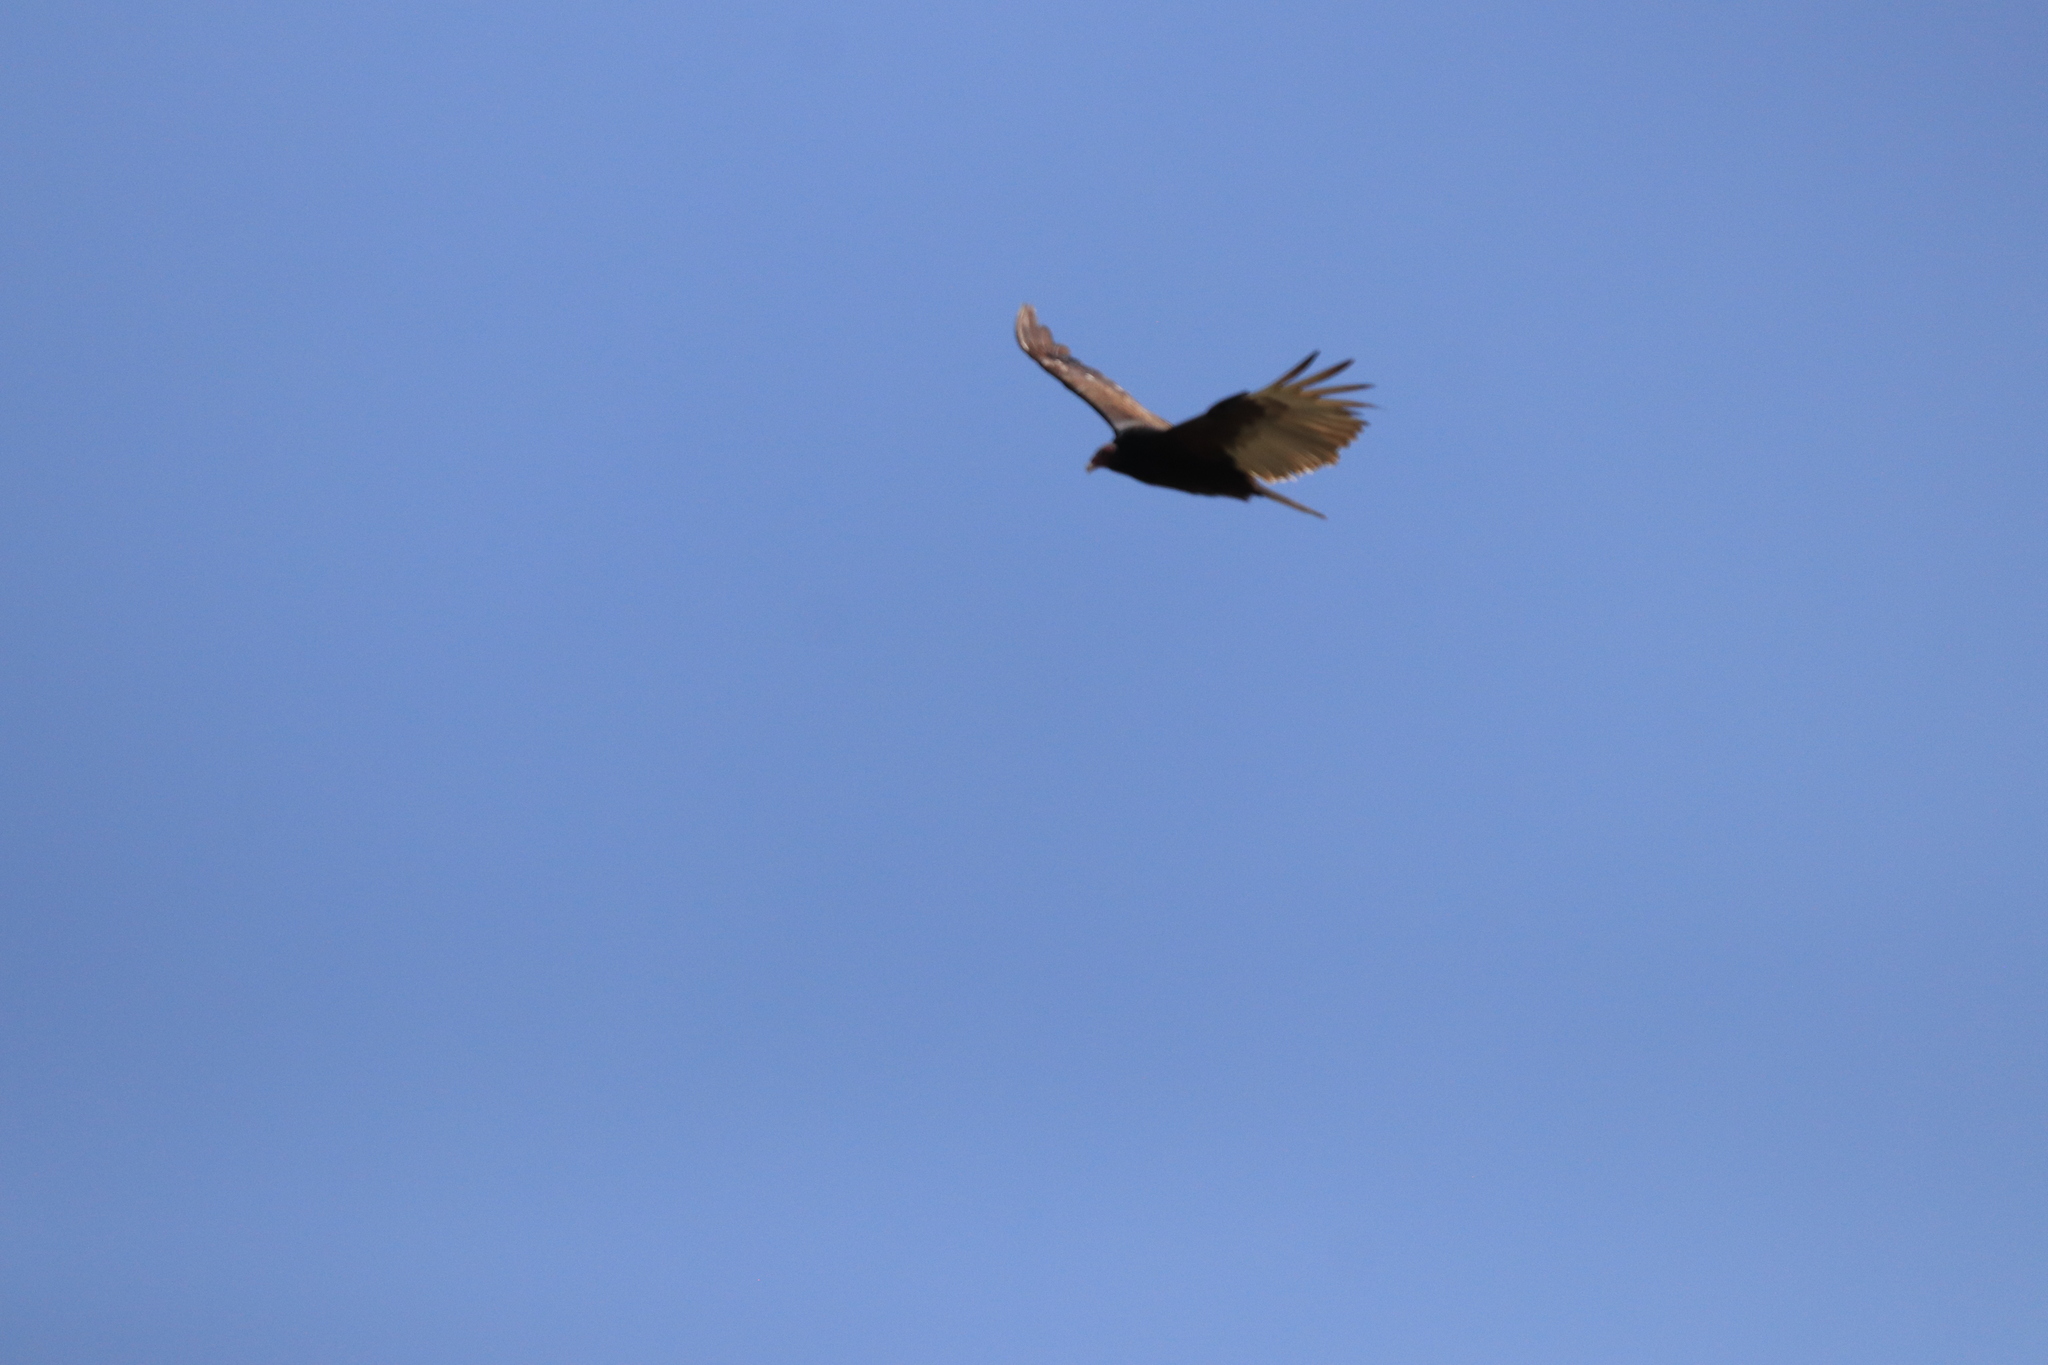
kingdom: Animalia
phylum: Chordata
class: Aves
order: Accipitriformes
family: Cathartidae
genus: Cathartes
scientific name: Cathartes aura
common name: Turkey vulture
